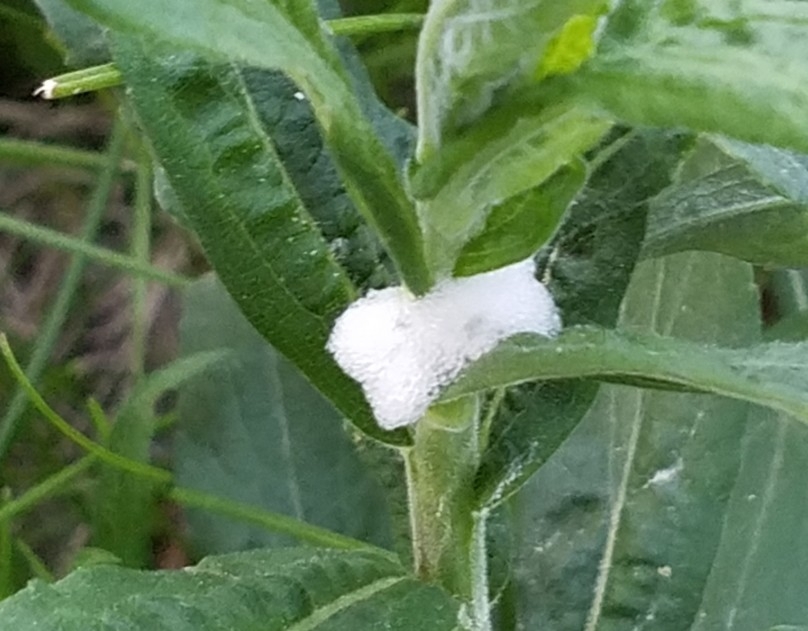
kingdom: Animalia
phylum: Arthropoda
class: Insecta
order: Hemiptera
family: Aphrophoridae
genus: Philaenus
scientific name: Philaenus spumarius
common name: Meadow spittlebug
